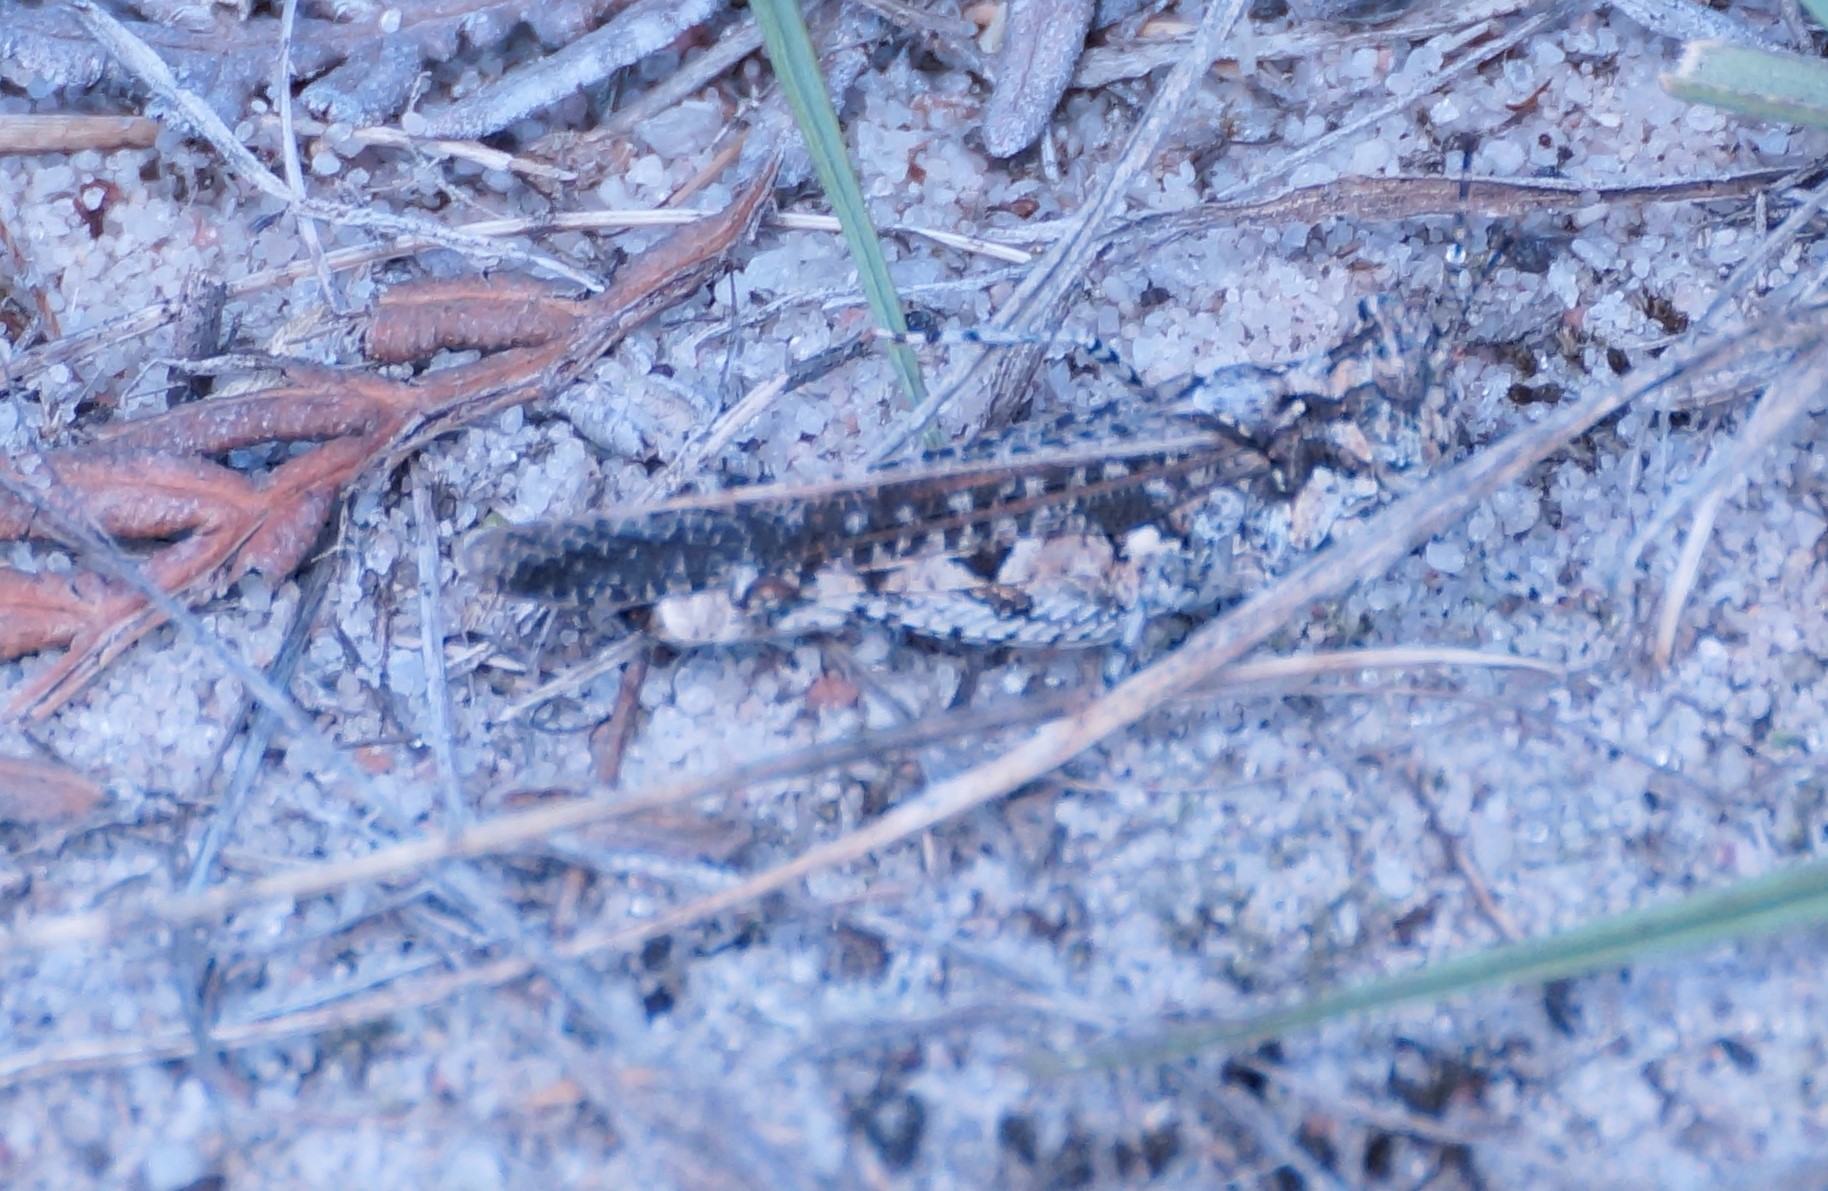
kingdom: Animalia
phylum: Arthropoda
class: Insecta
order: Orthoptera
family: Acrididae
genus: Pycnostictus
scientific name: Pycnostictus seriatus
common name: Common bandwing
